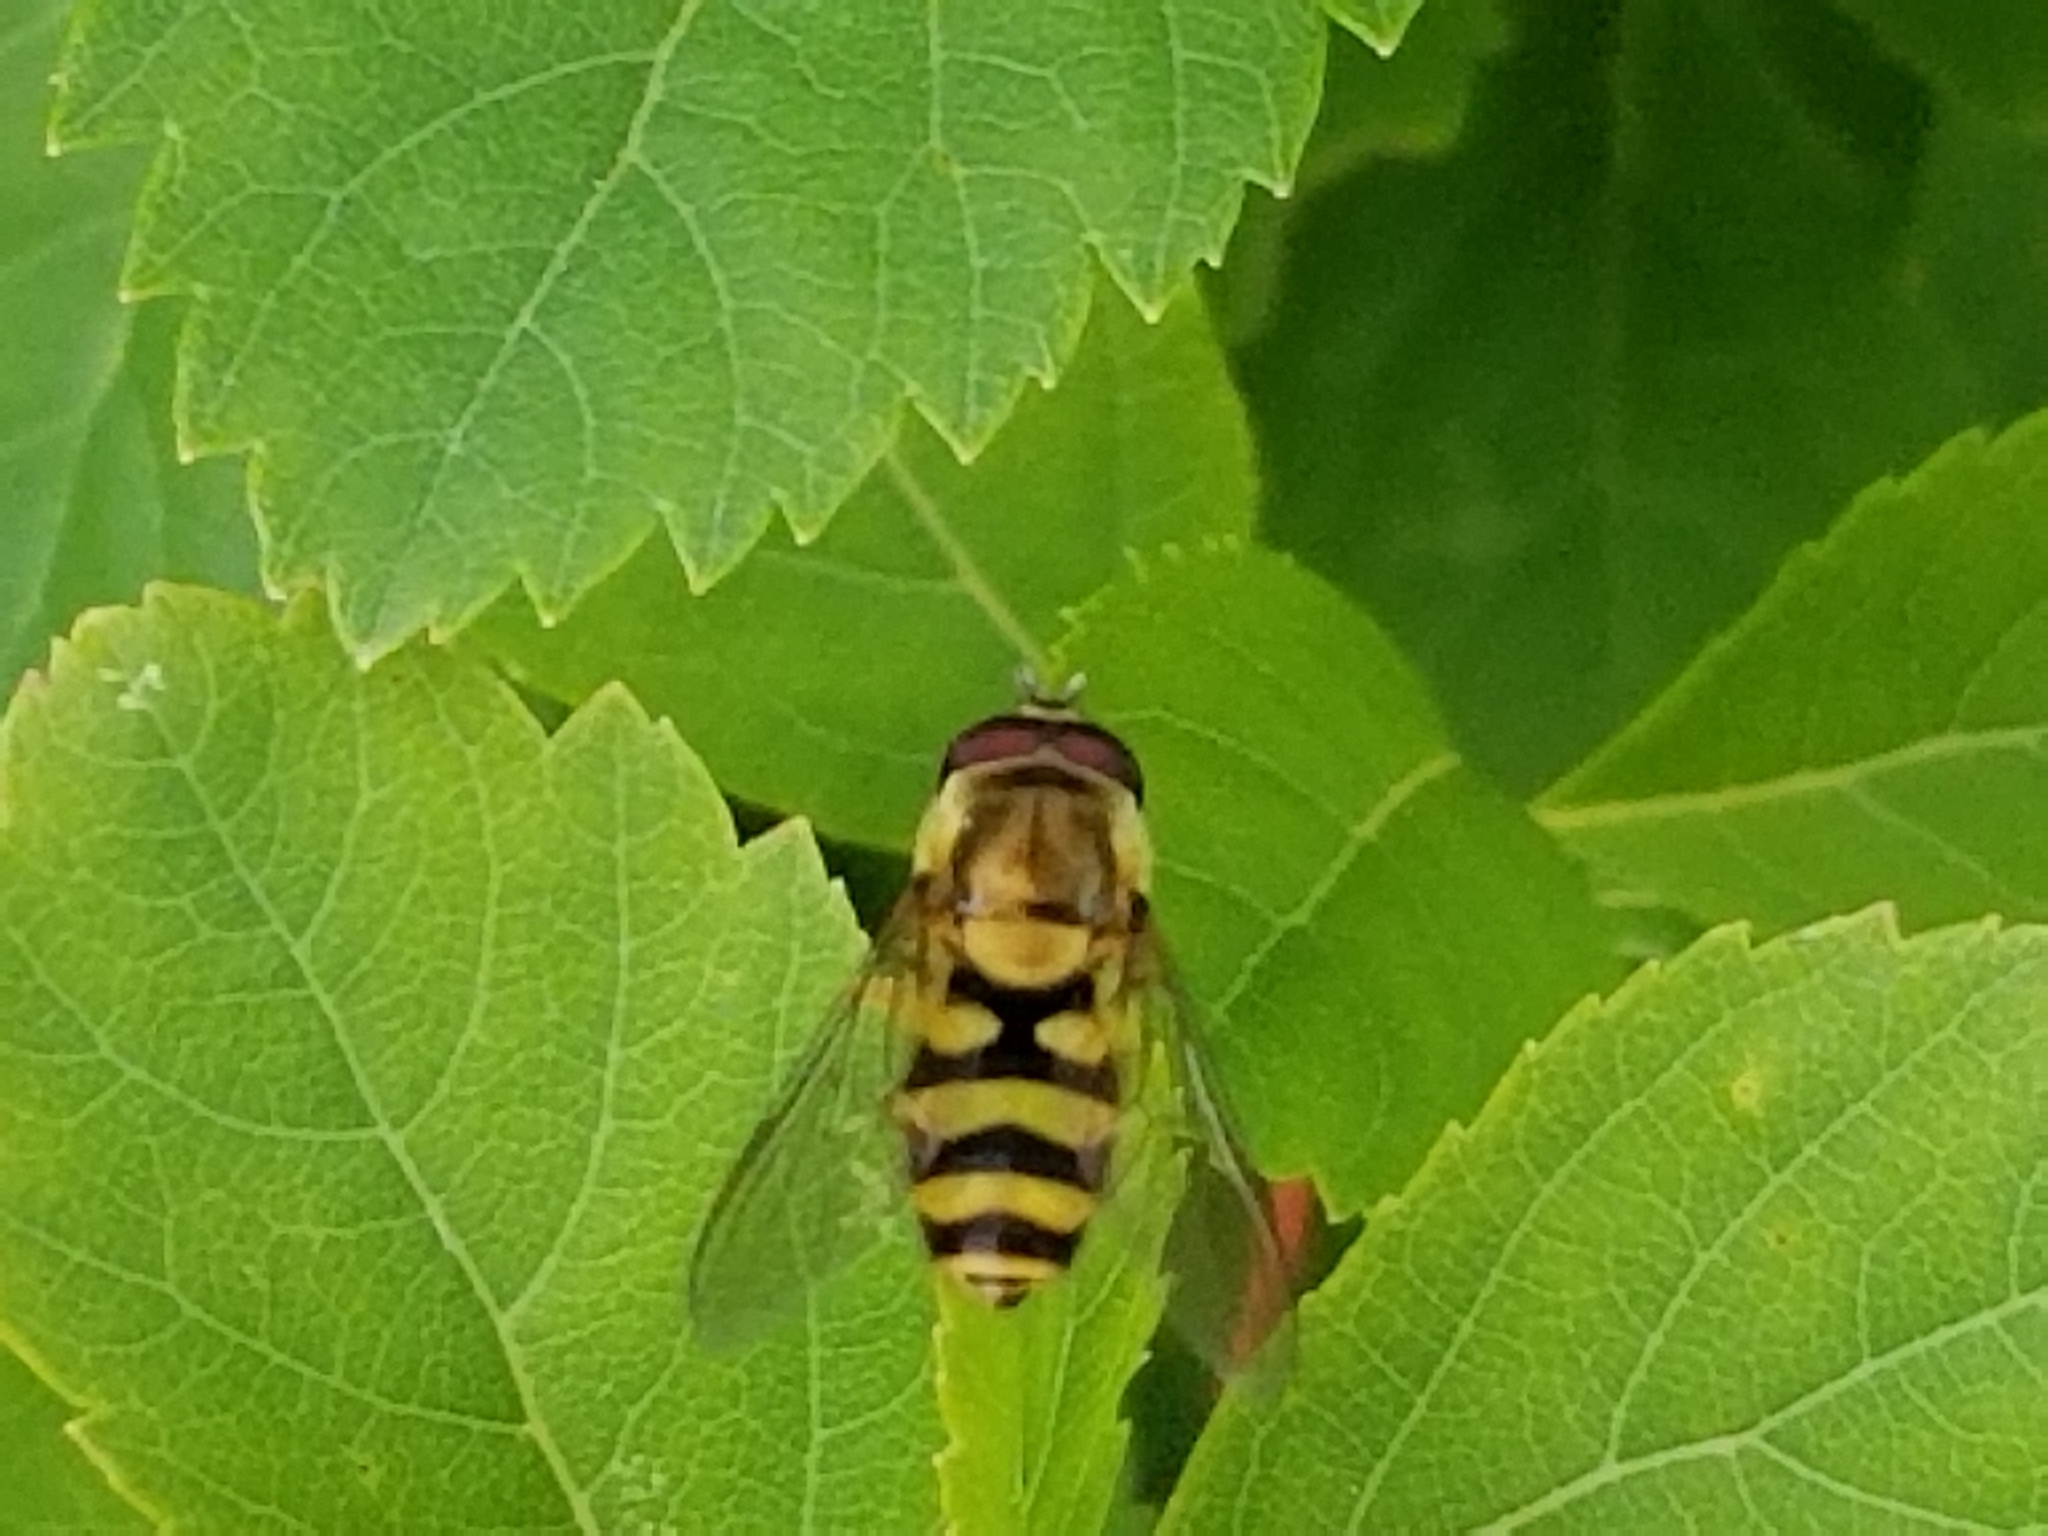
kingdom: Animalia
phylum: Arthropoda
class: Insecta
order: Diptera
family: Syrphidae
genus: Syrphus
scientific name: Syrphus
